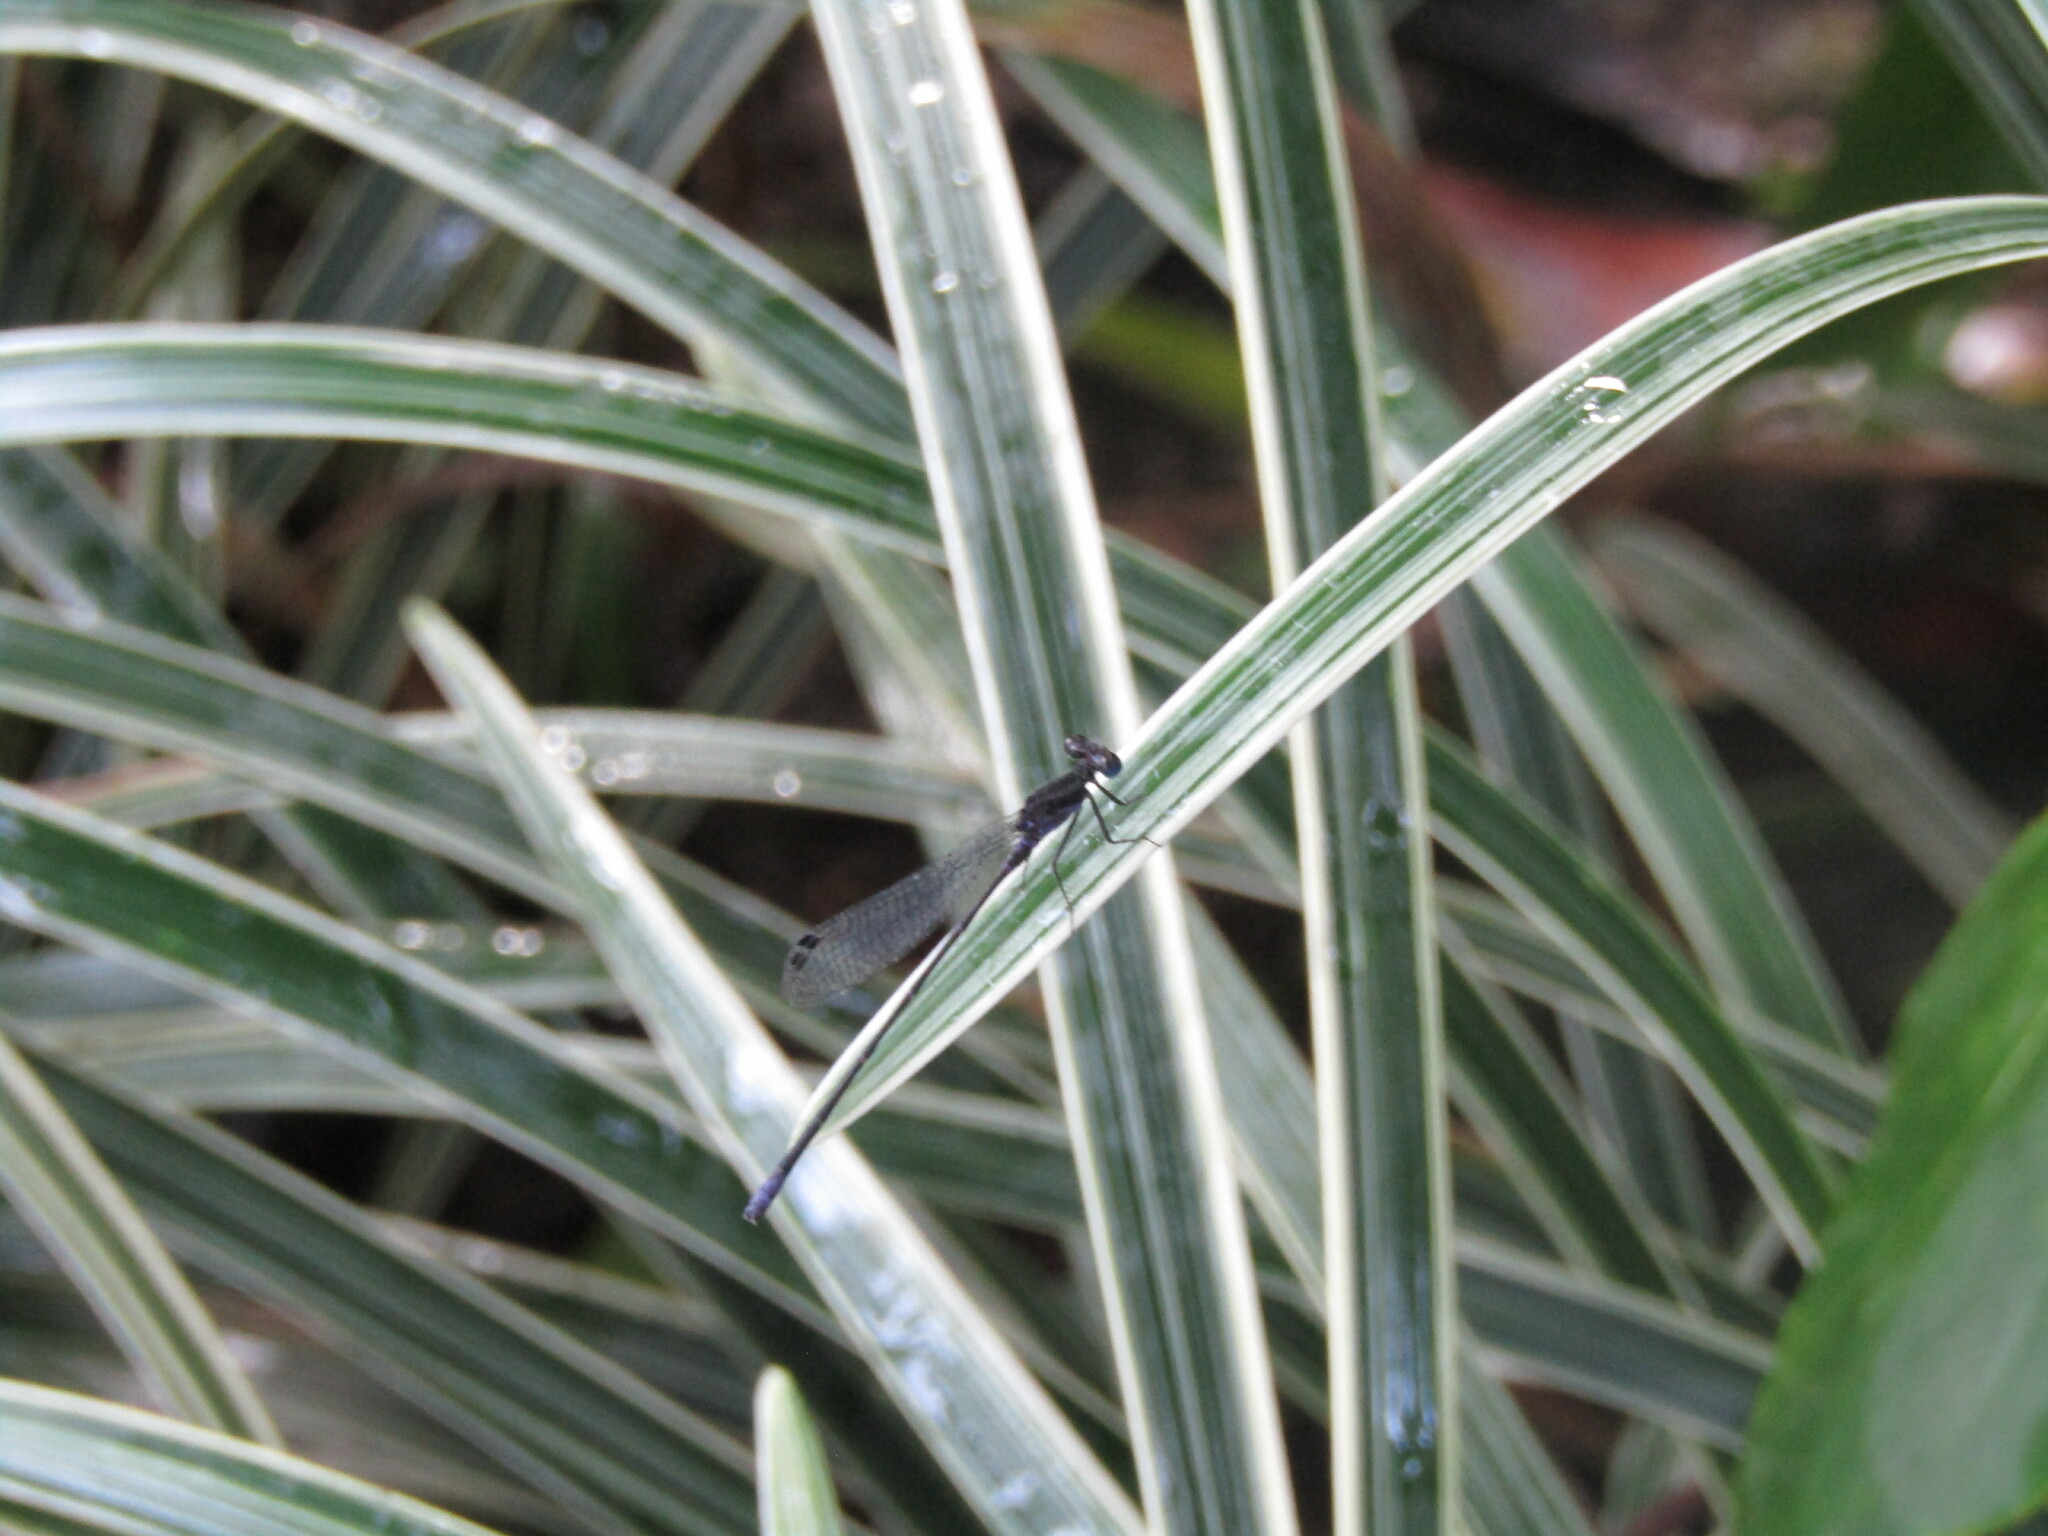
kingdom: Animalia
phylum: Arthropoda
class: Insecta
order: Odonata
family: Coenagrionidae
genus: Argia
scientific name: Argia pulla
